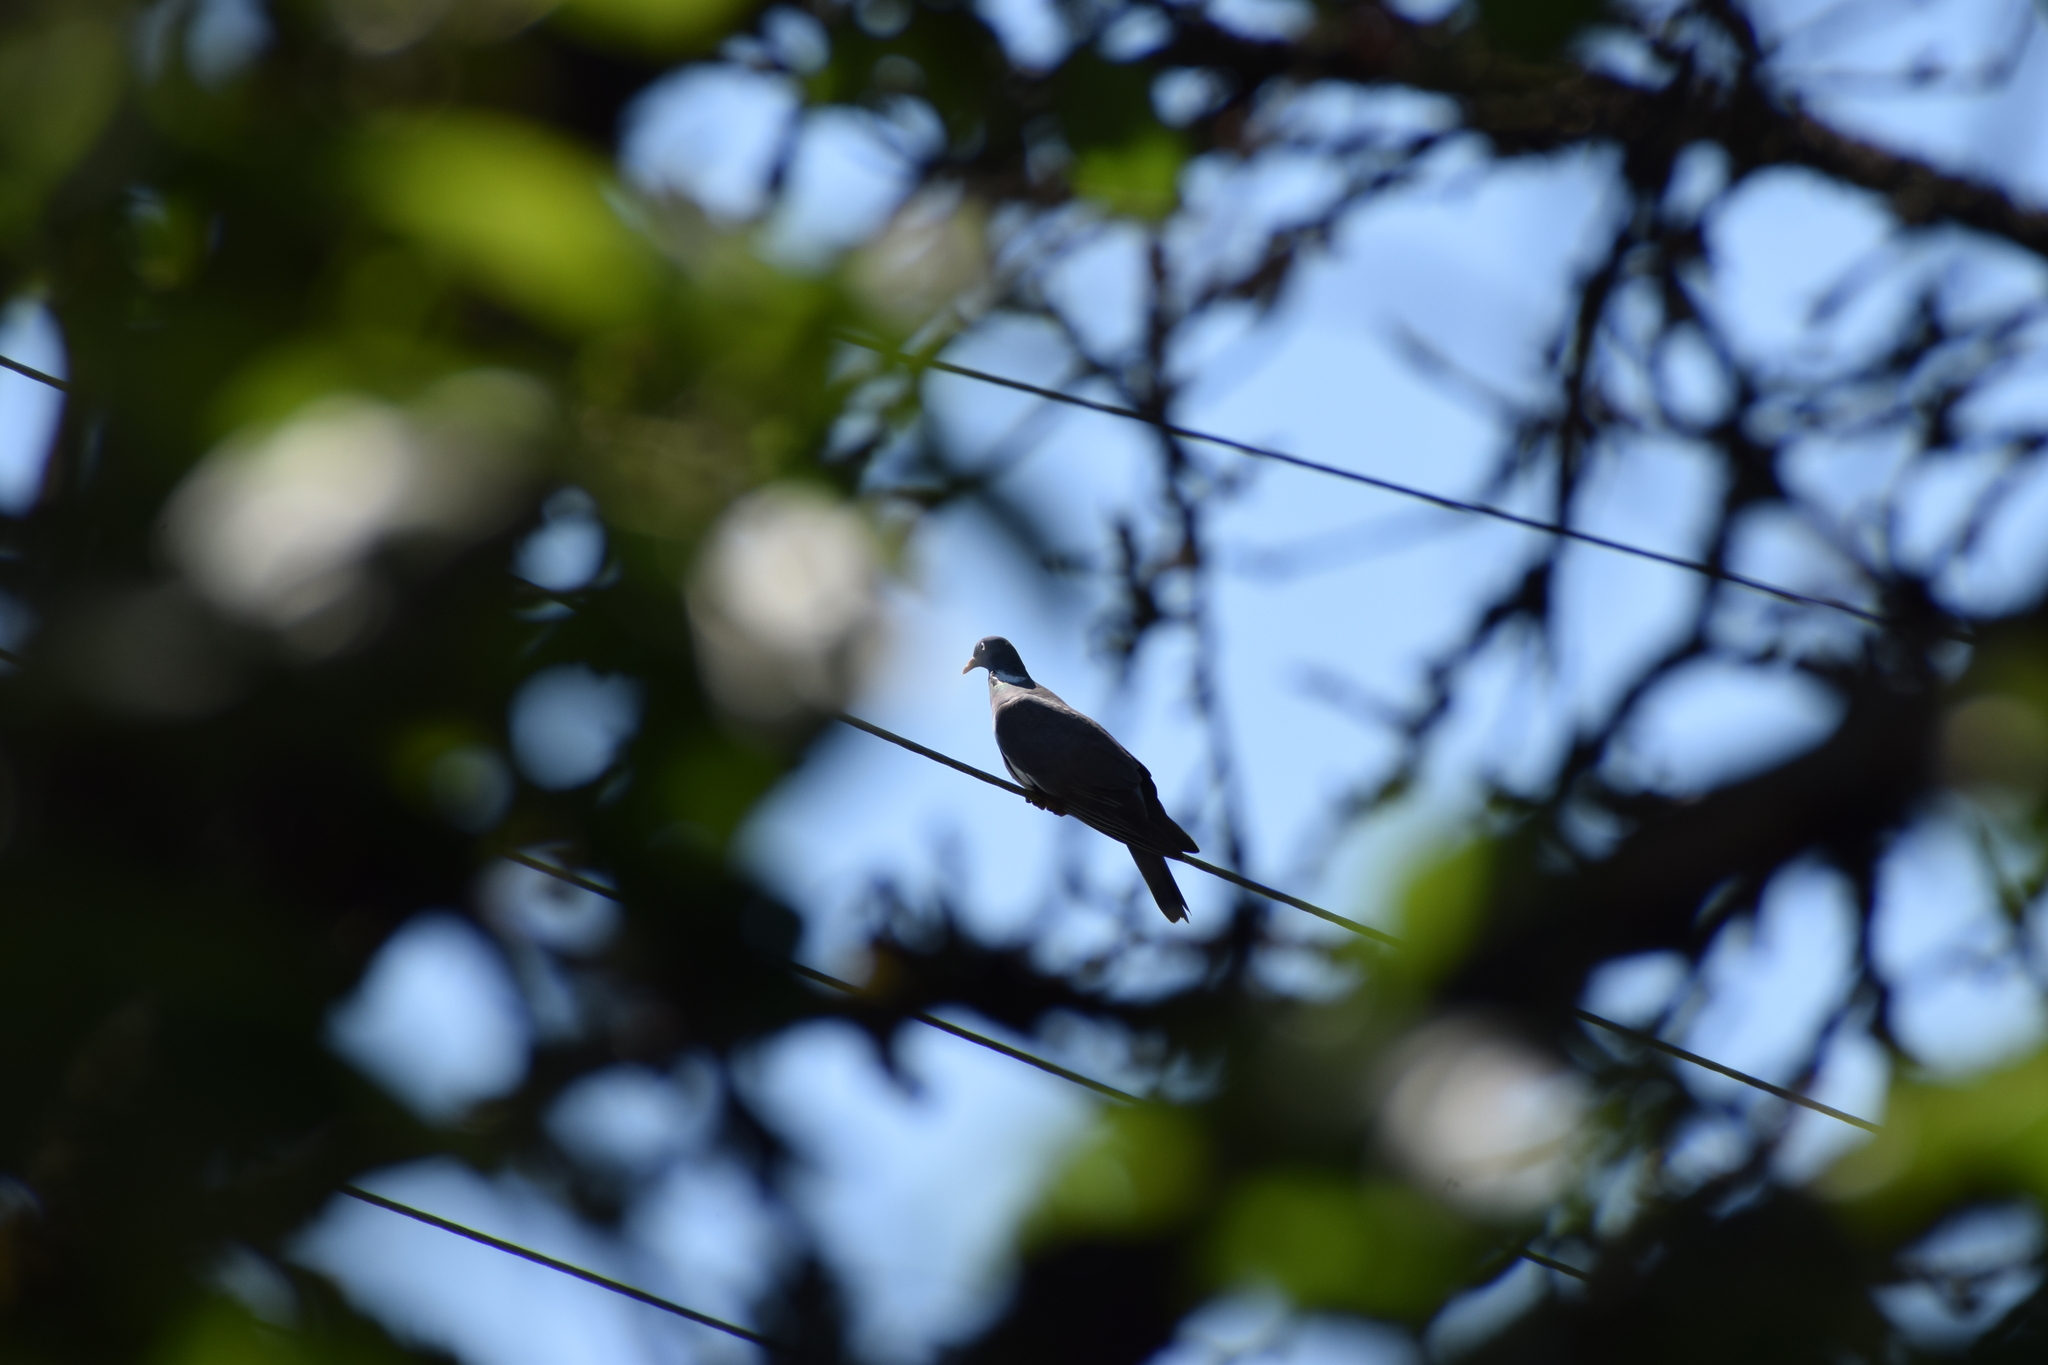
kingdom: Animalia
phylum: Chordata
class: Aves
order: Columbiformes
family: Columbidae
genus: Columba
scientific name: Columba palumbus
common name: Common wood pigeon
